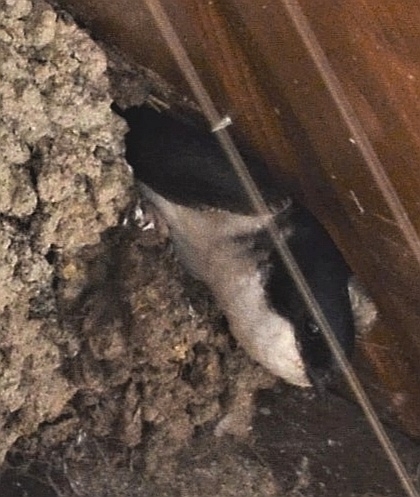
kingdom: Animalia
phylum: Chordata
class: Aves
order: Passeriformes
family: Hirundinidae
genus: Delichon
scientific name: Delichon urbicum
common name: Common house martin
